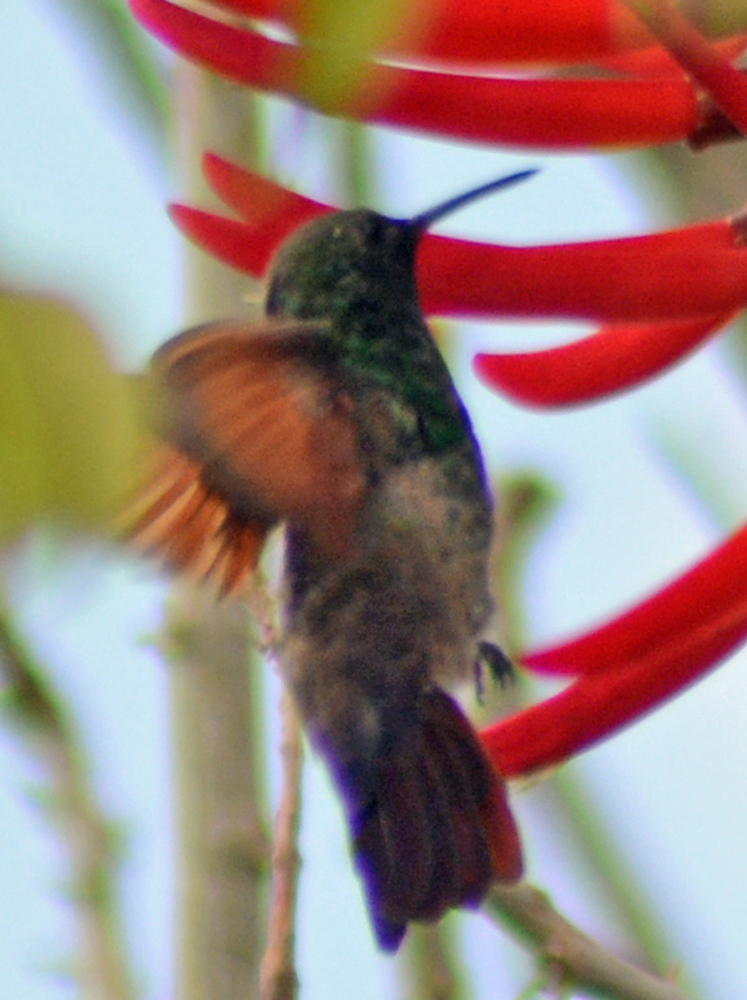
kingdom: Animalia
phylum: Chordata
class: Aves
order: Apodiformes
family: Trochilidae
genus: Saucerottia
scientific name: Saucerottia beryllina
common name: Berylline hummingbird
